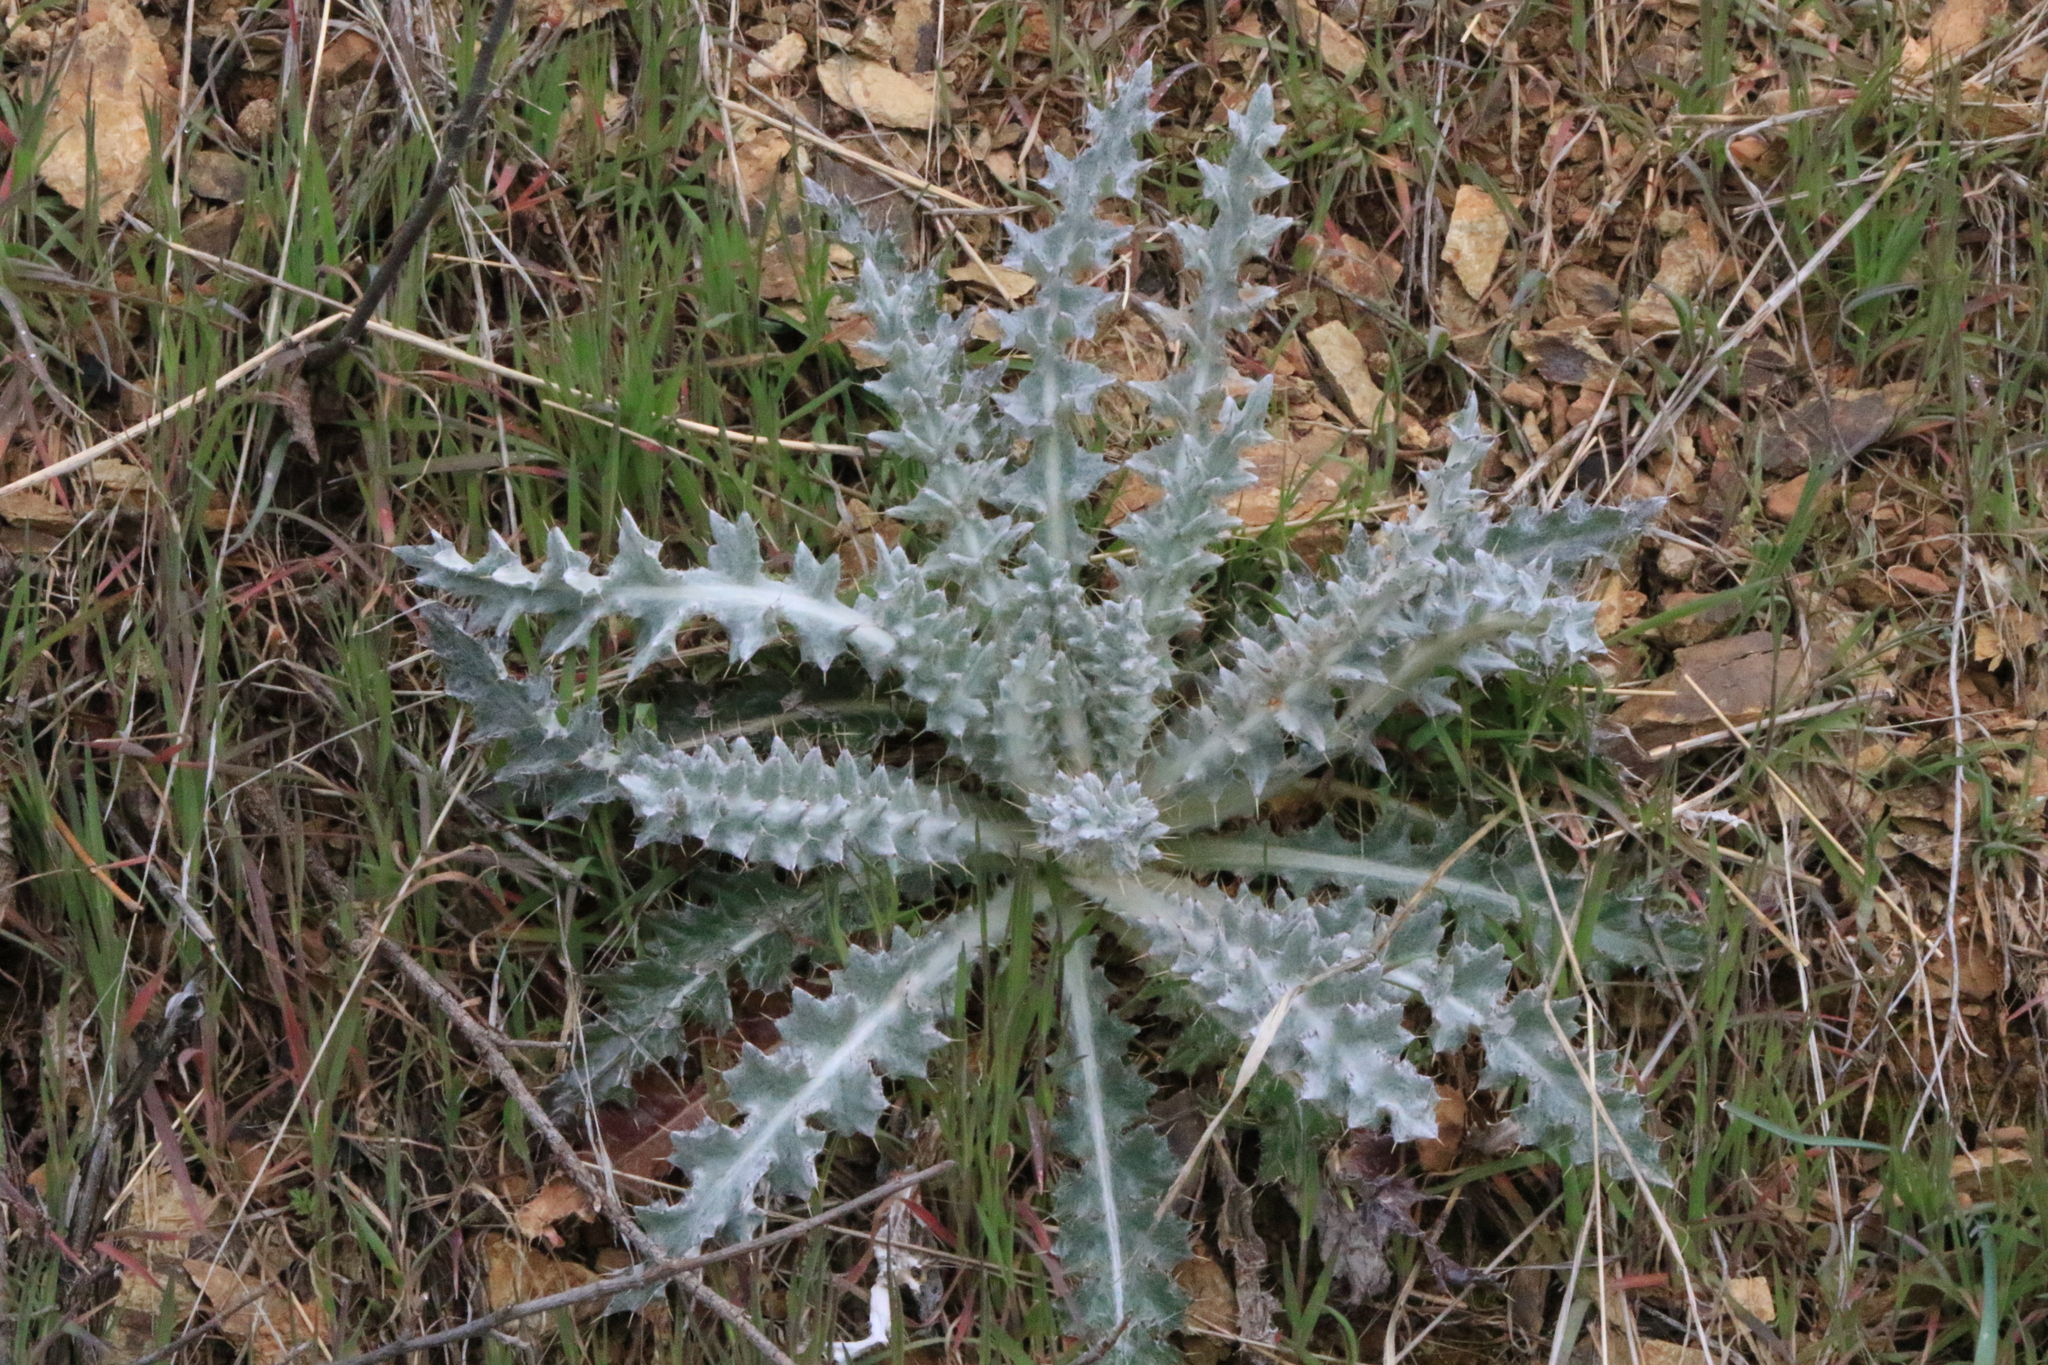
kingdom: Plantae
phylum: Tracheophyta
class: Magnoliopsida
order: Asterales
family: Asteraceae
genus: Cirsium
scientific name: Cirsium occidentale
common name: Western thistle
